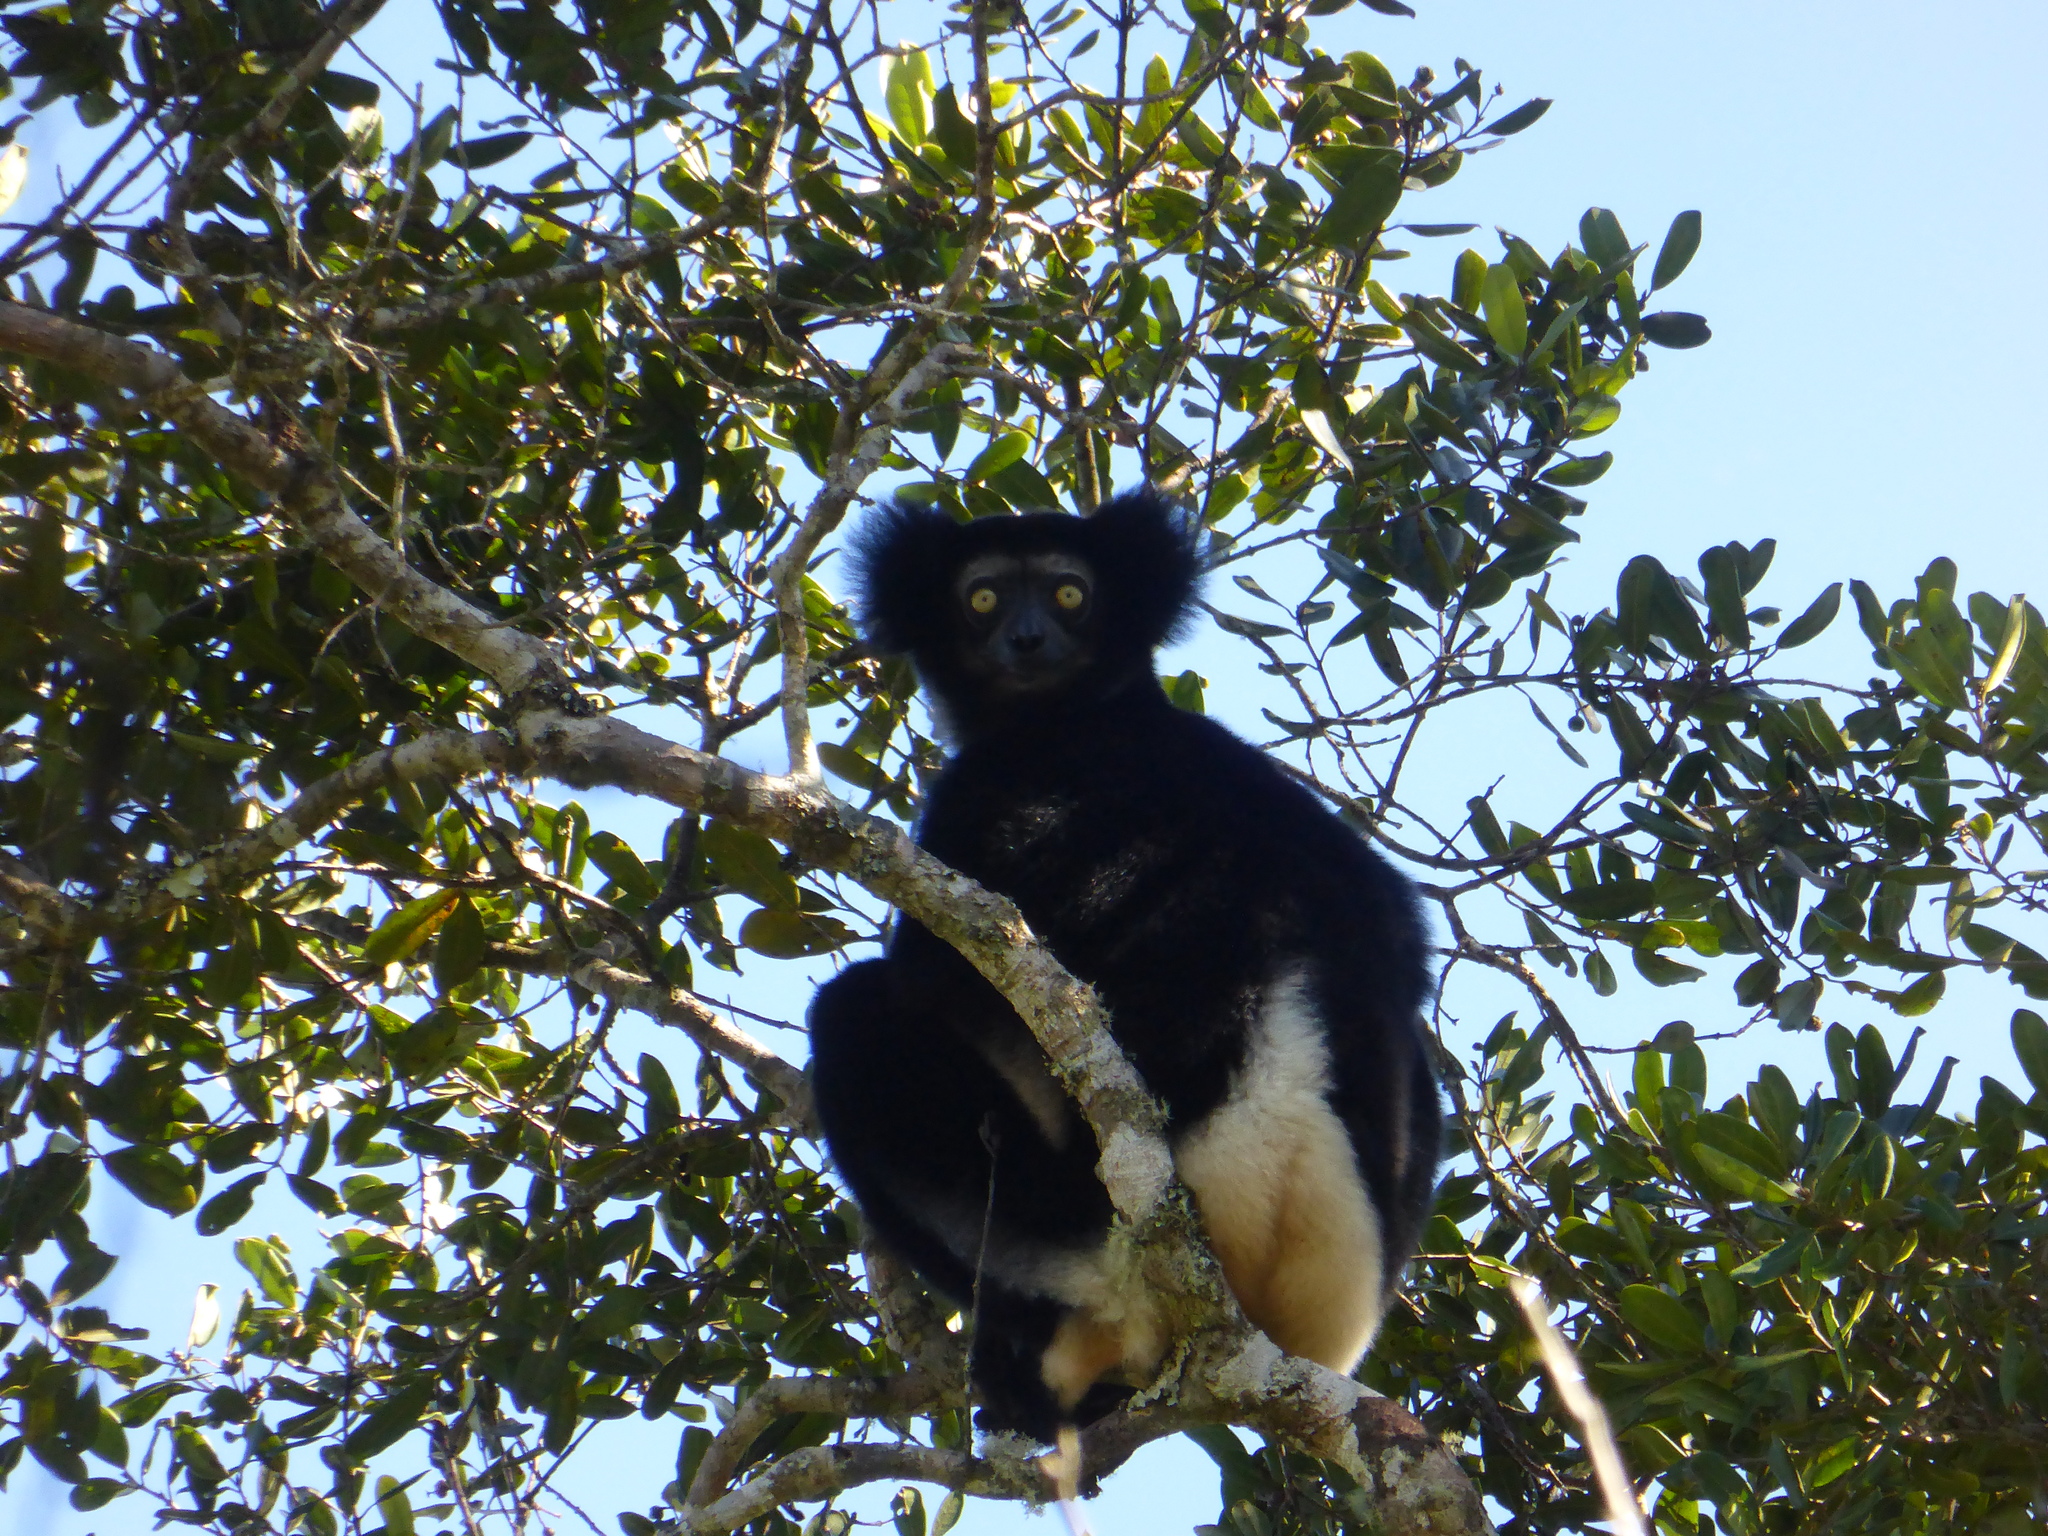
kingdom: Animalia
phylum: Chordata
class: Mammalia
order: Primates
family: Indriidae
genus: Indri
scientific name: Indri indri
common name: Indri
